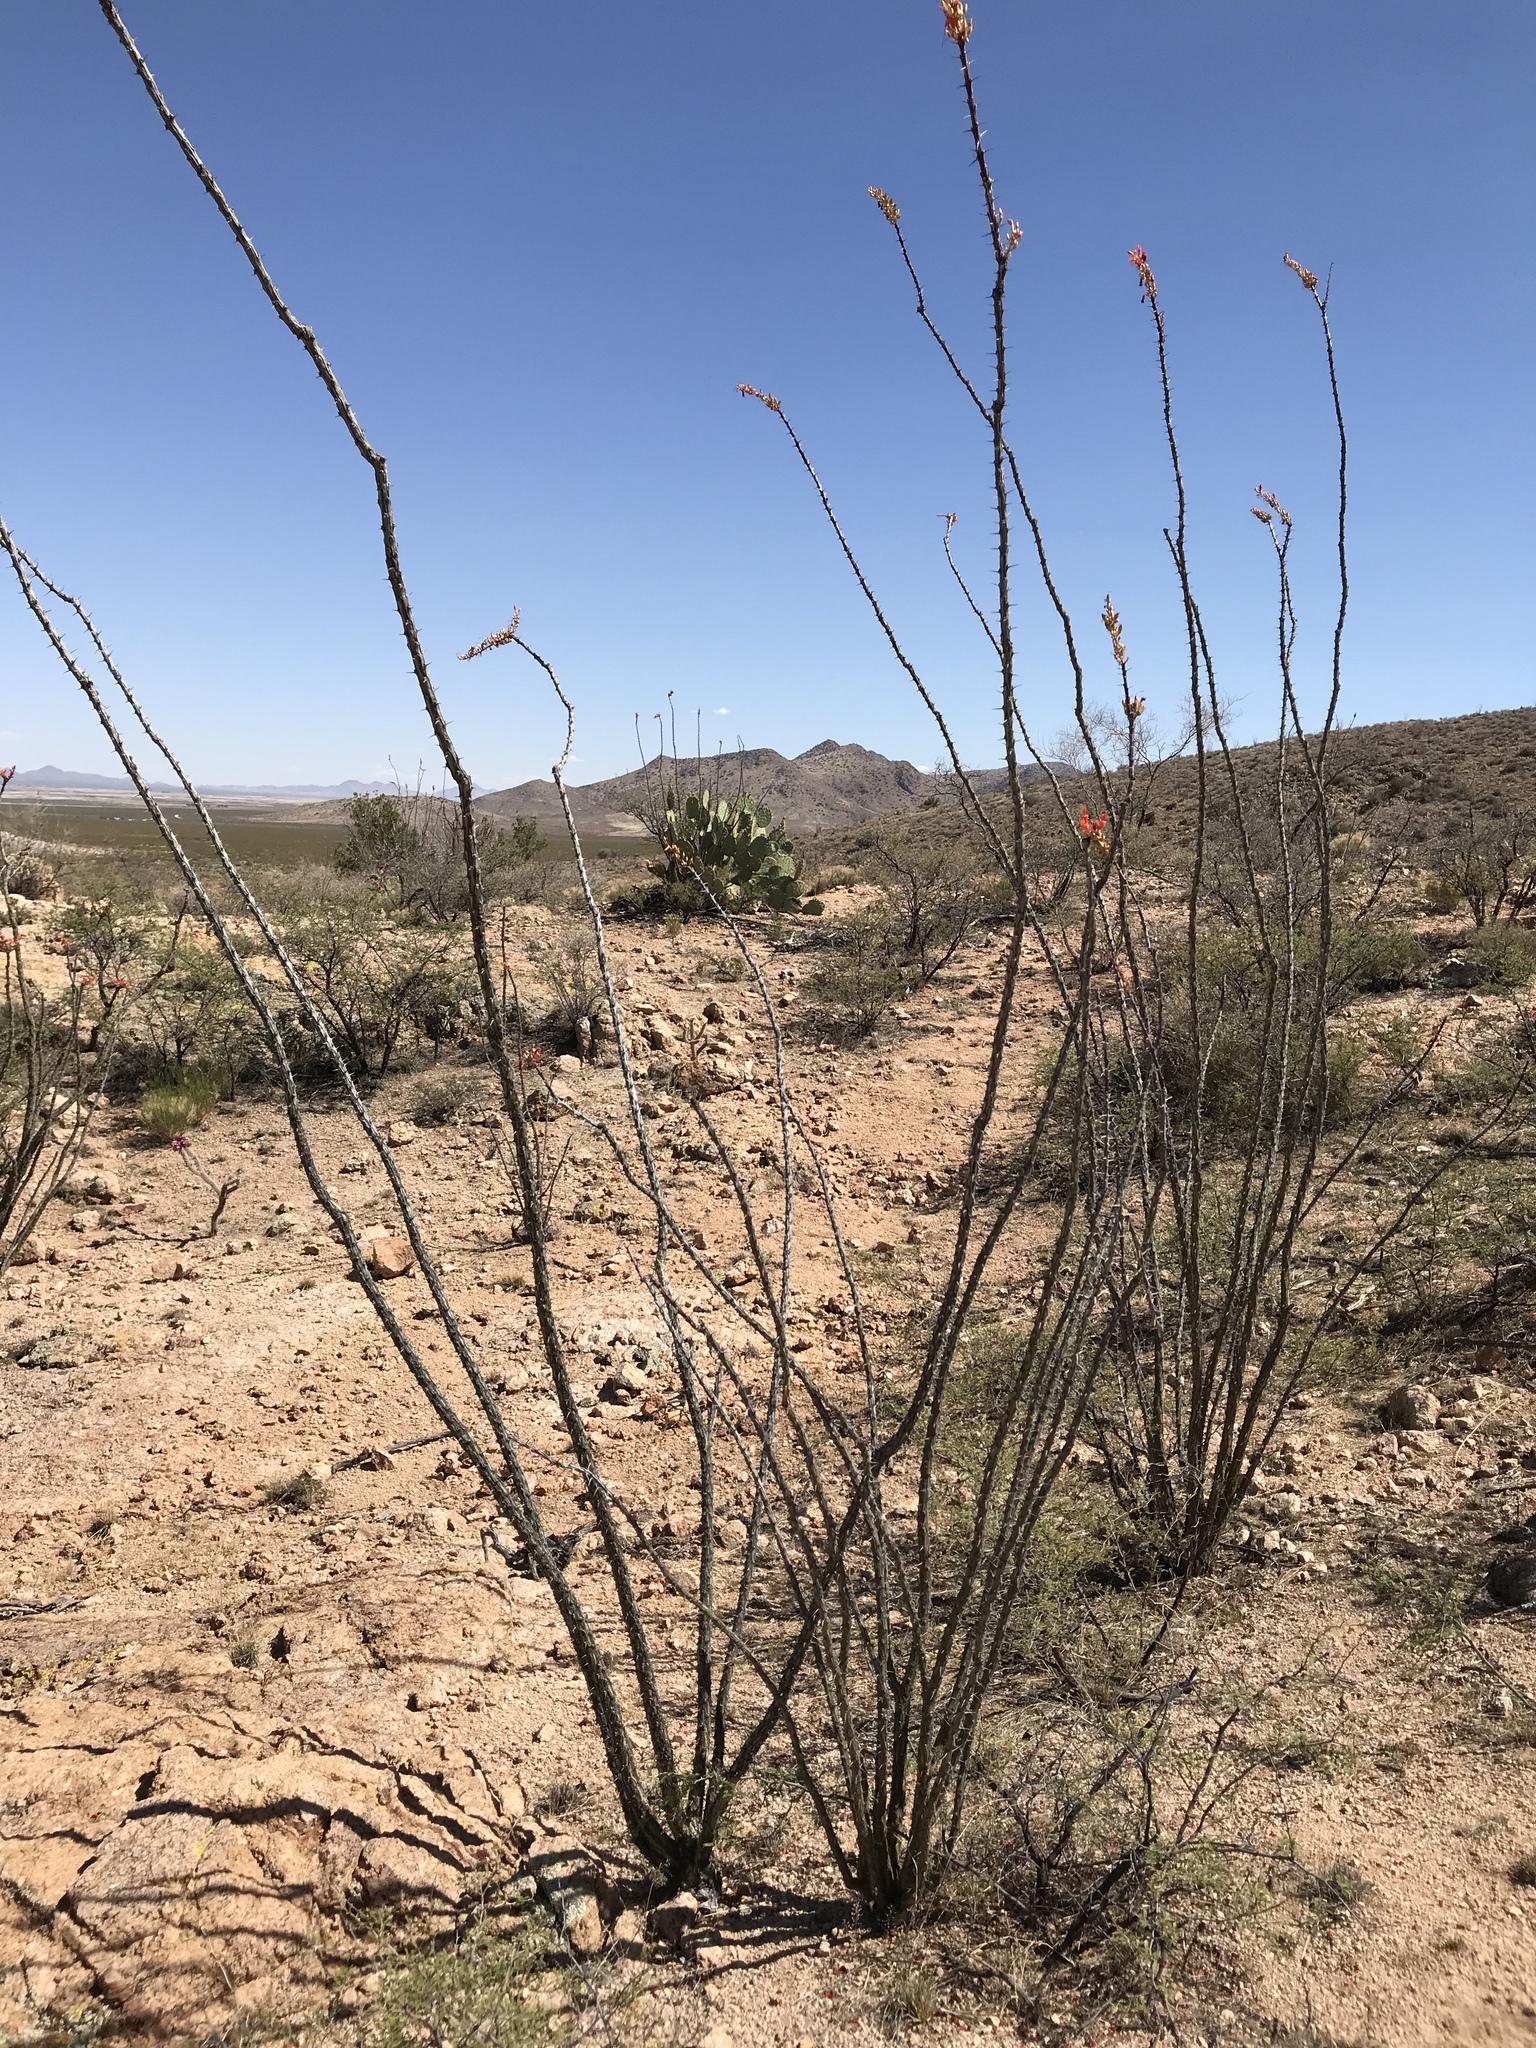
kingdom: Plantae
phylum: Tracheophyta
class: Magnoliopsida
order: Ericales
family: Fouquieriaceae
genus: Fouquieria
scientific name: Fouquieria splendens
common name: Vine-cactus
